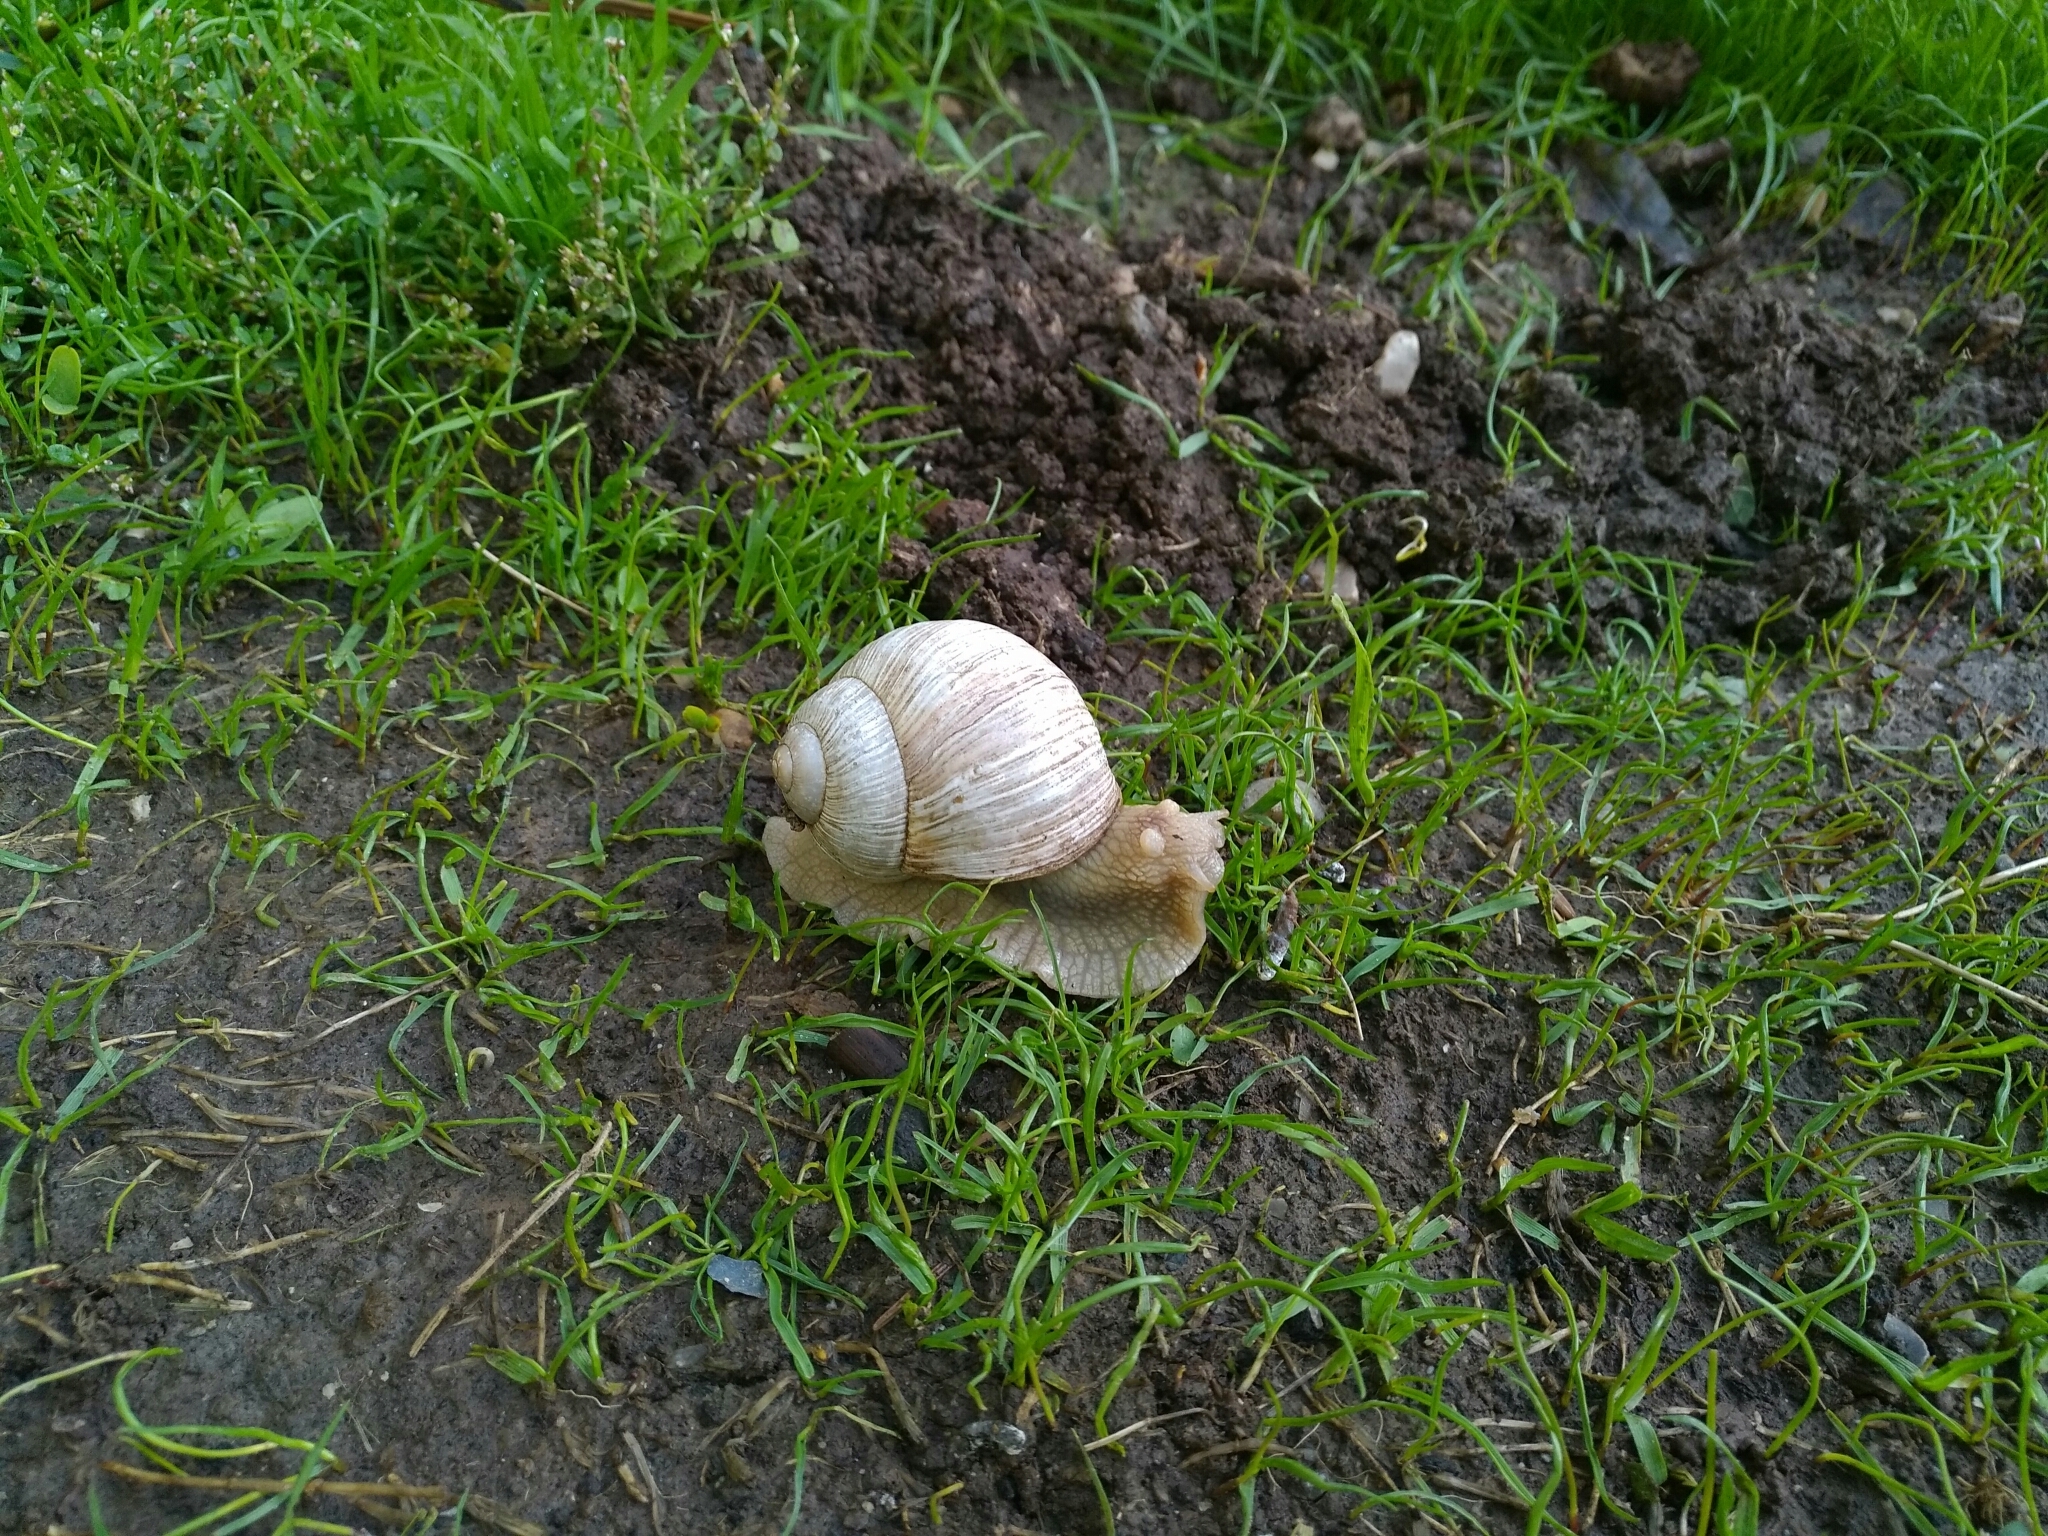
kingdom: Animalia
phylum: Mollusca
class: Gastropoda
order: Stylommatophora
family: Helicidae
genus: Helix
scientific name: Helix pomatia
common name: Roman snail
